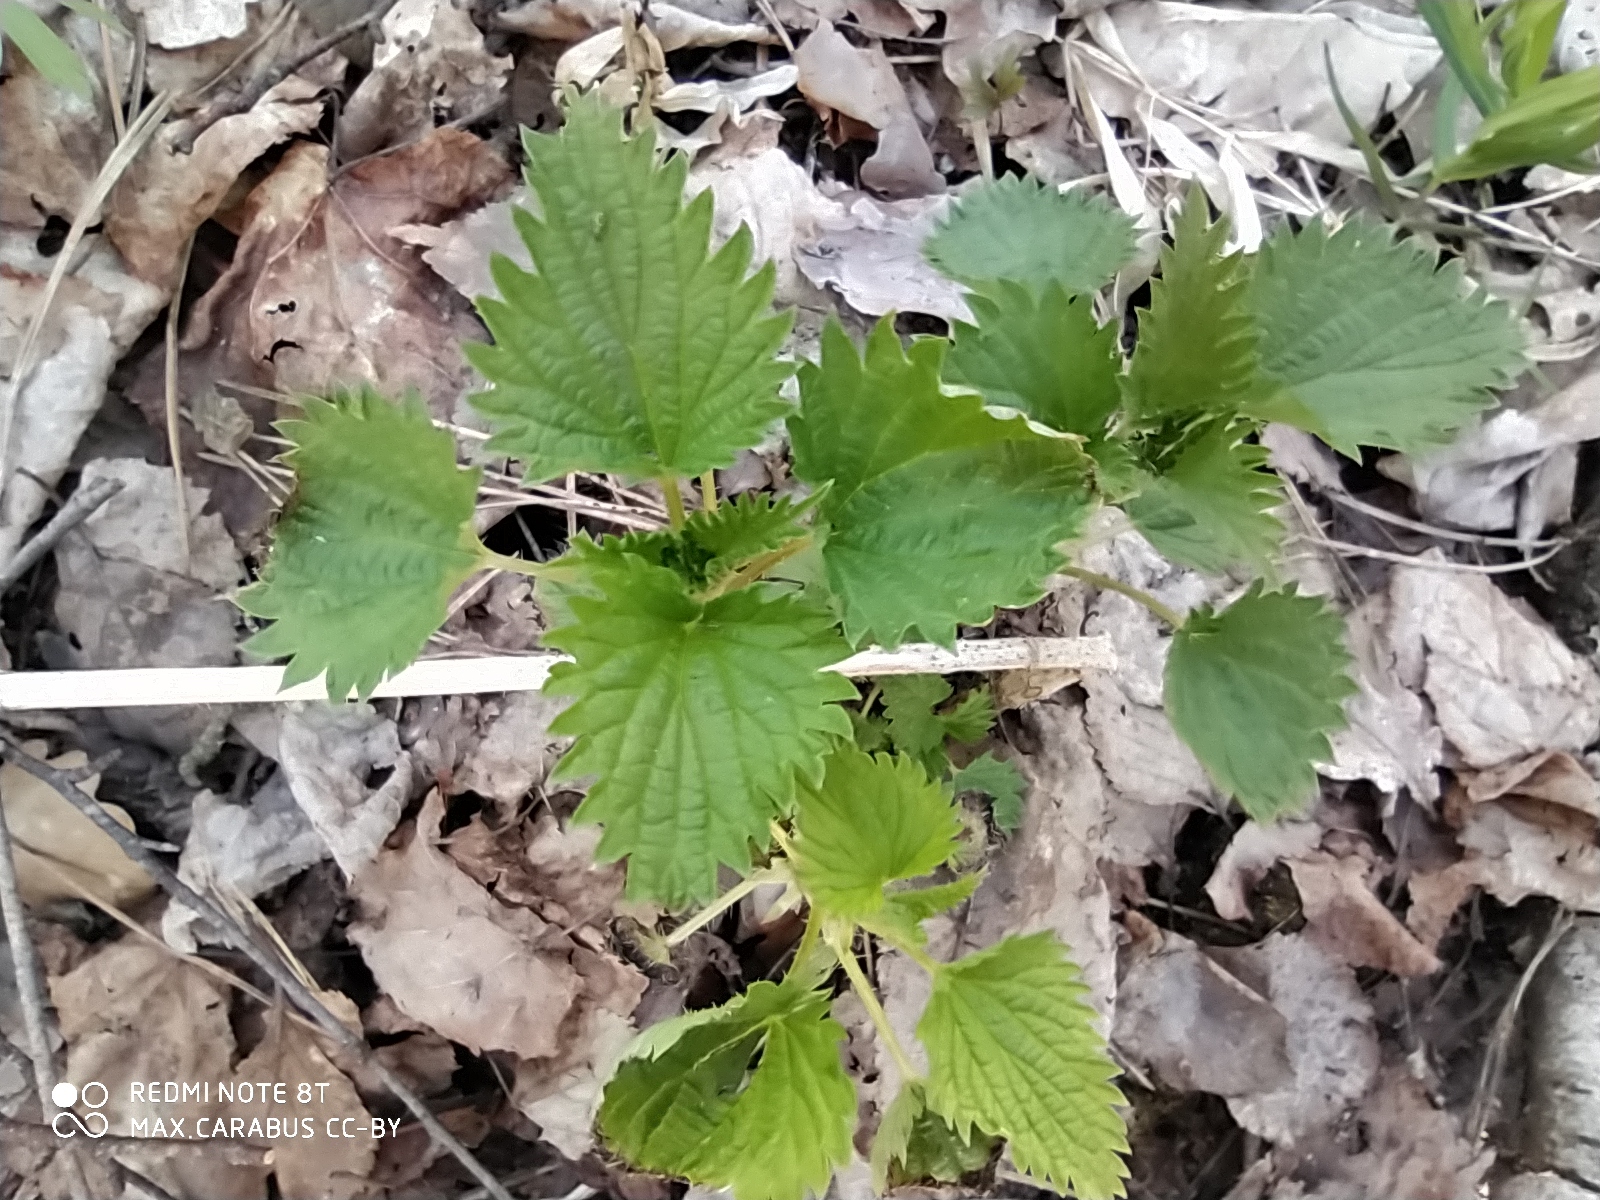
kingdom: Plantae
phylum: Tracheophyta
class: Magnoliopsida
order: Rosales
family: Urticaceae
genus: Urtica
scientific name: Urtica dioica
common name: Common nettle
